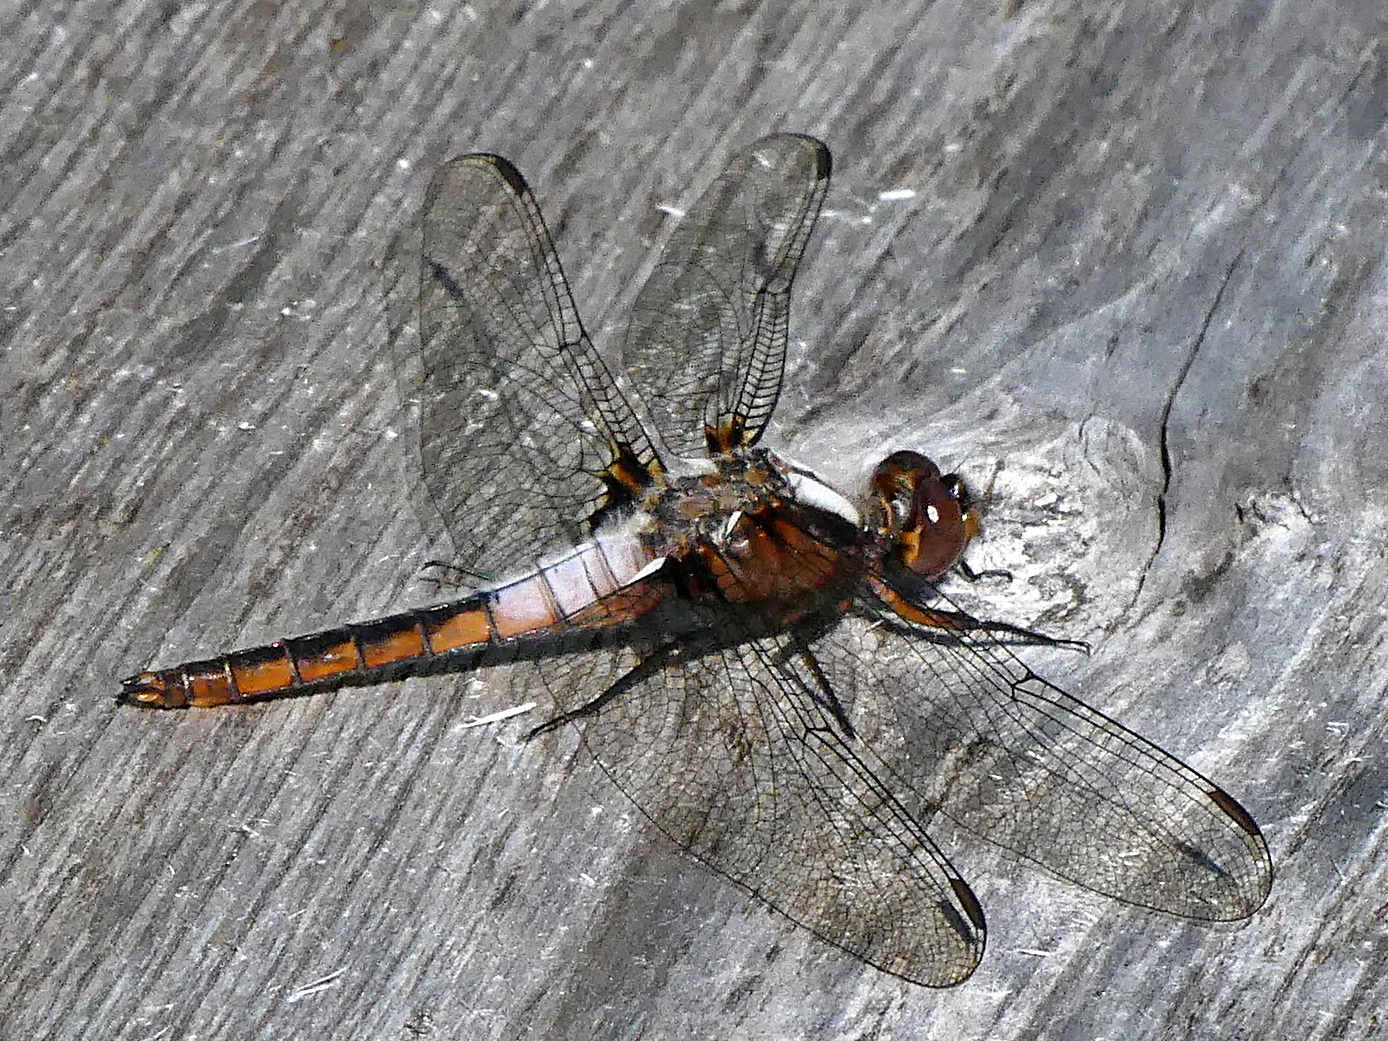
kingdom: Animalia
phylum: Arthropoda
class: Insecta
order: Odonata
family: Libellulidae
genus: Ladona
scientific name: Ladona julia
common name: Chalk-fronted corporal
